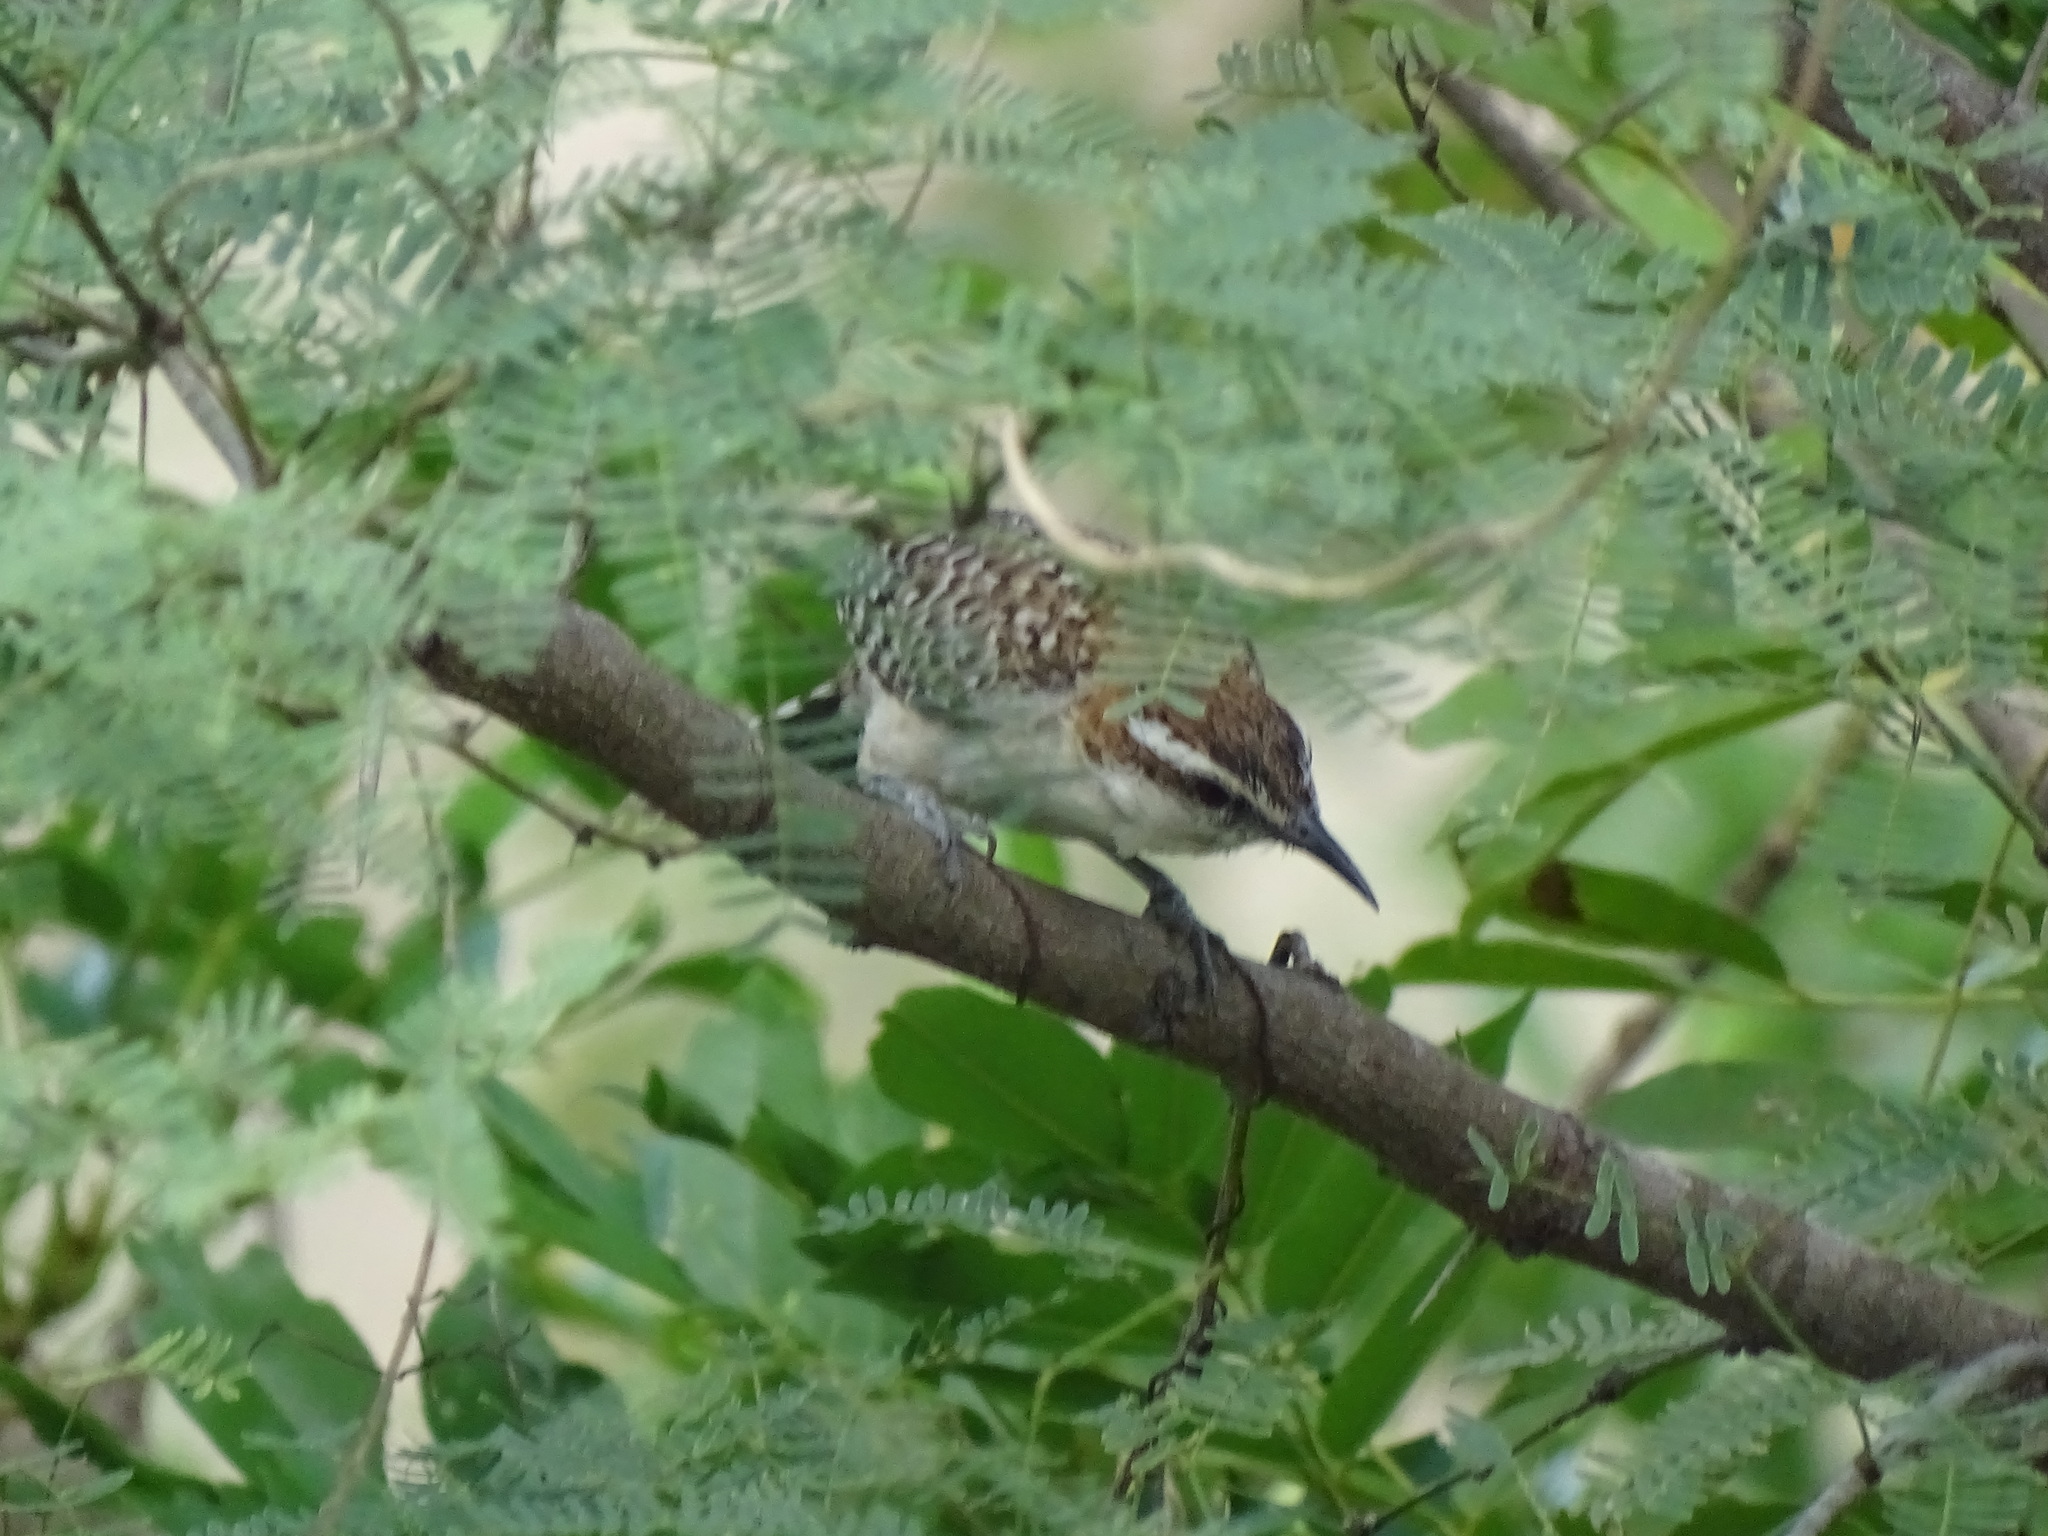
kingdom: Animalia
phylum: Chordata
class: Aves
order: Passeriformes
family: Troglodytidae
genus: Campylorhynchus
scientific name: Campylorhynchus rufinucha
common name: Rufous-naped wren
